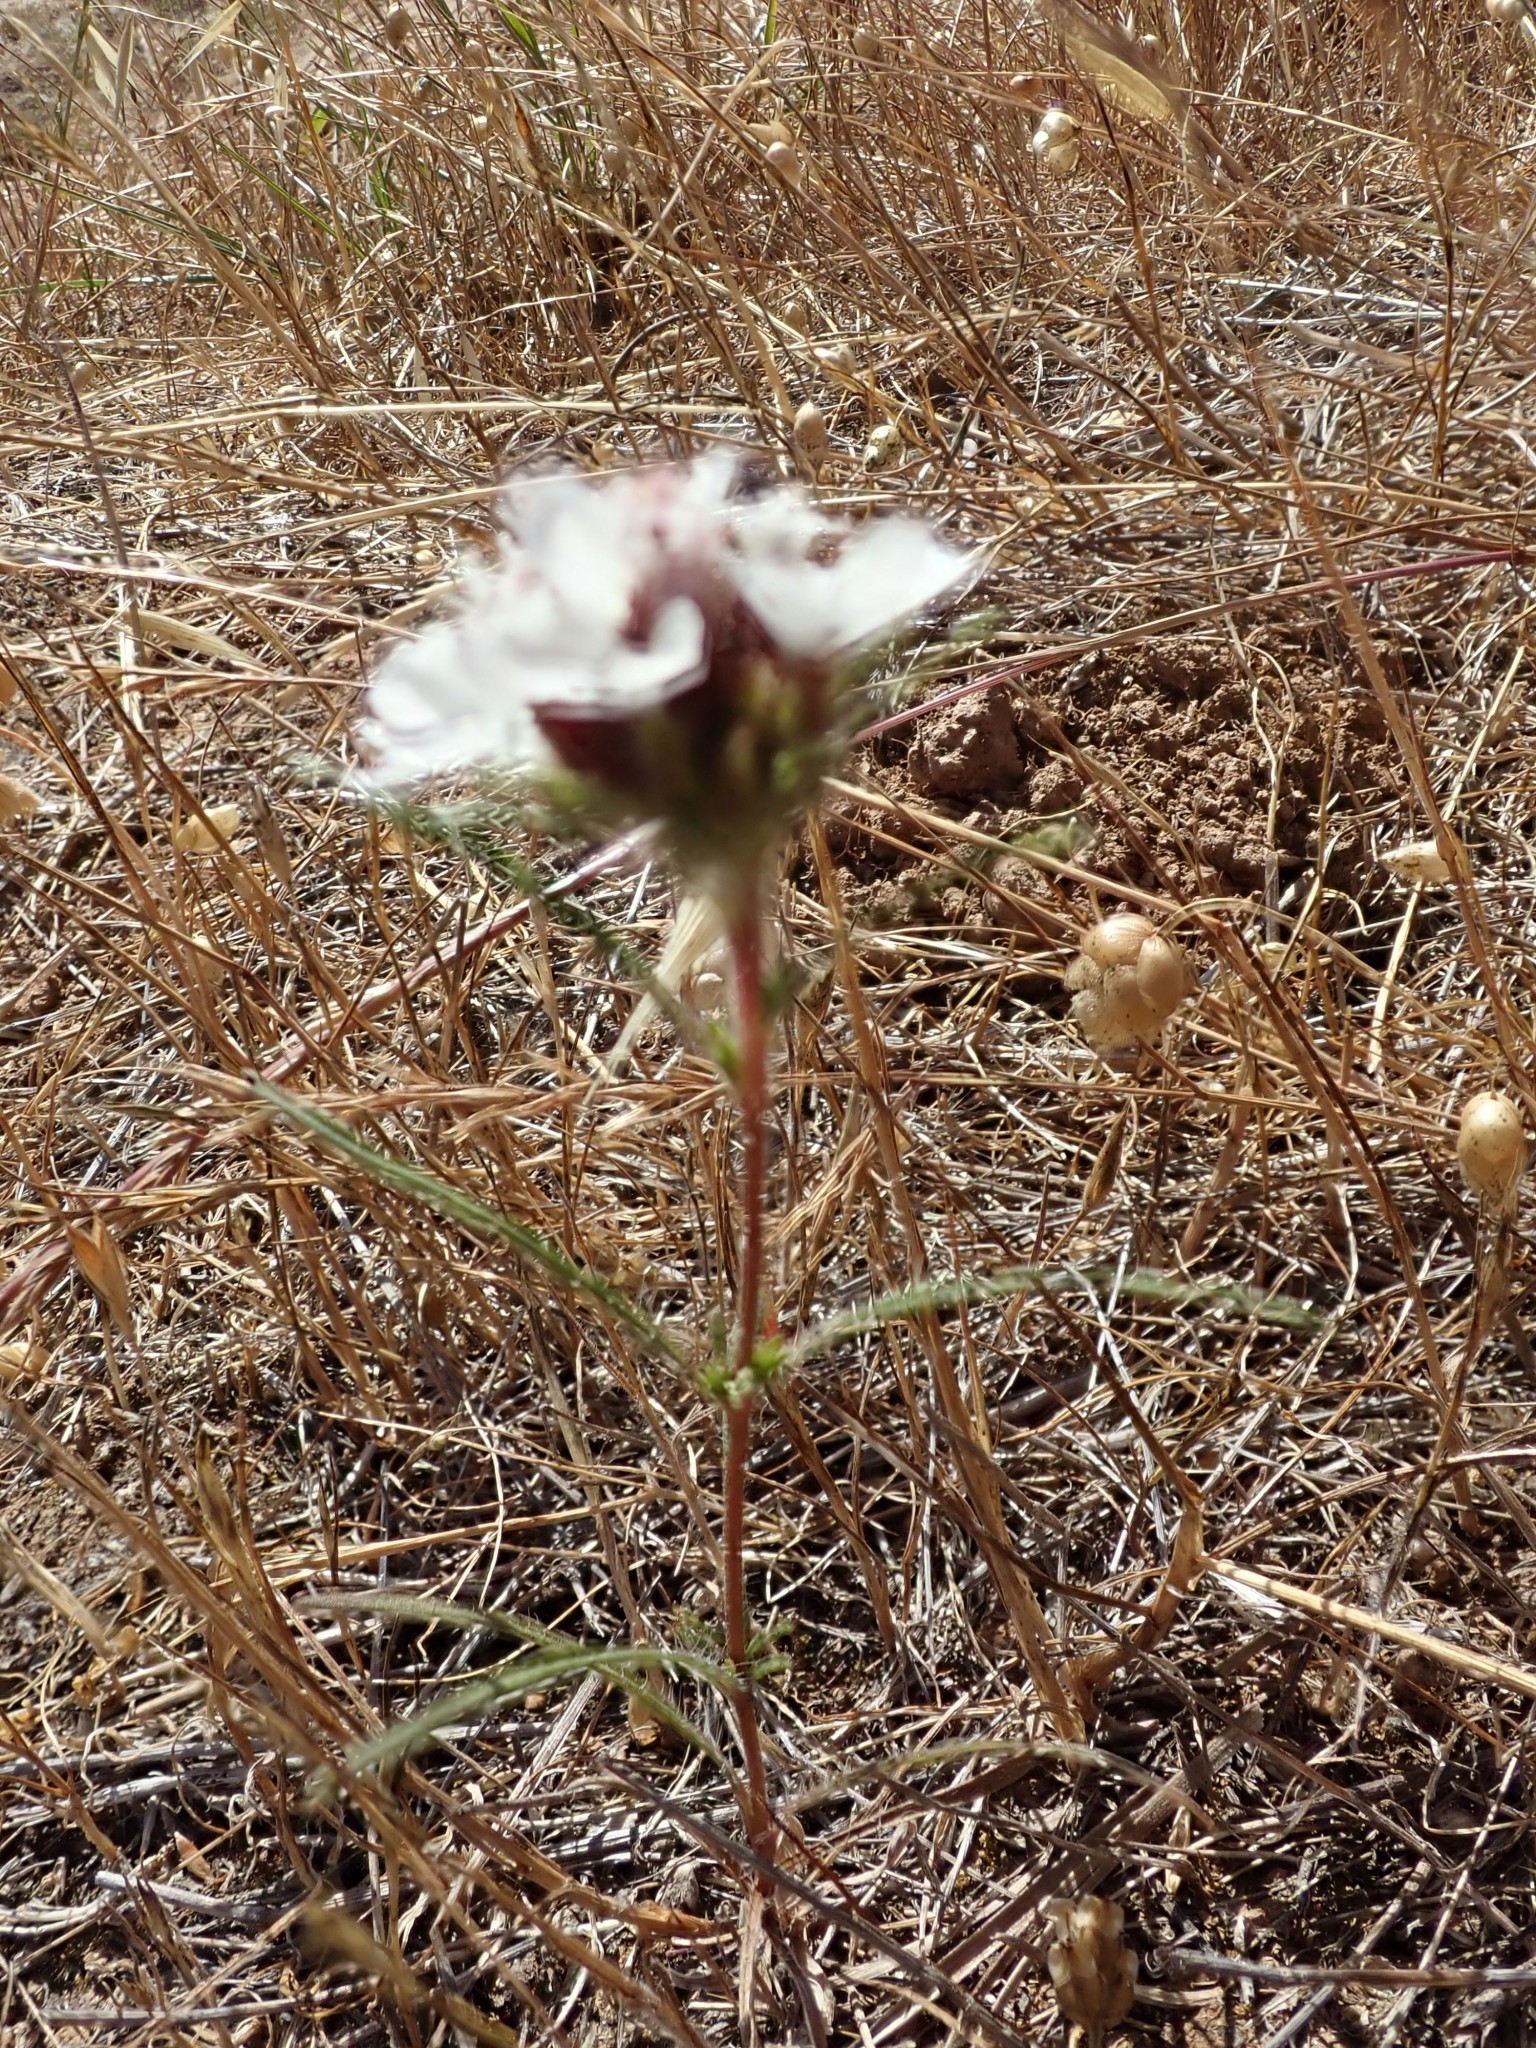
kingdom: Plantae
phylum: Tracheophyta
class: Magnoliopsida
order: Asterales
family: Asteraceae
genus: Calycadenia
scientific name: Calycadenia multiglandulosa
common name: Sticky calycadenia
